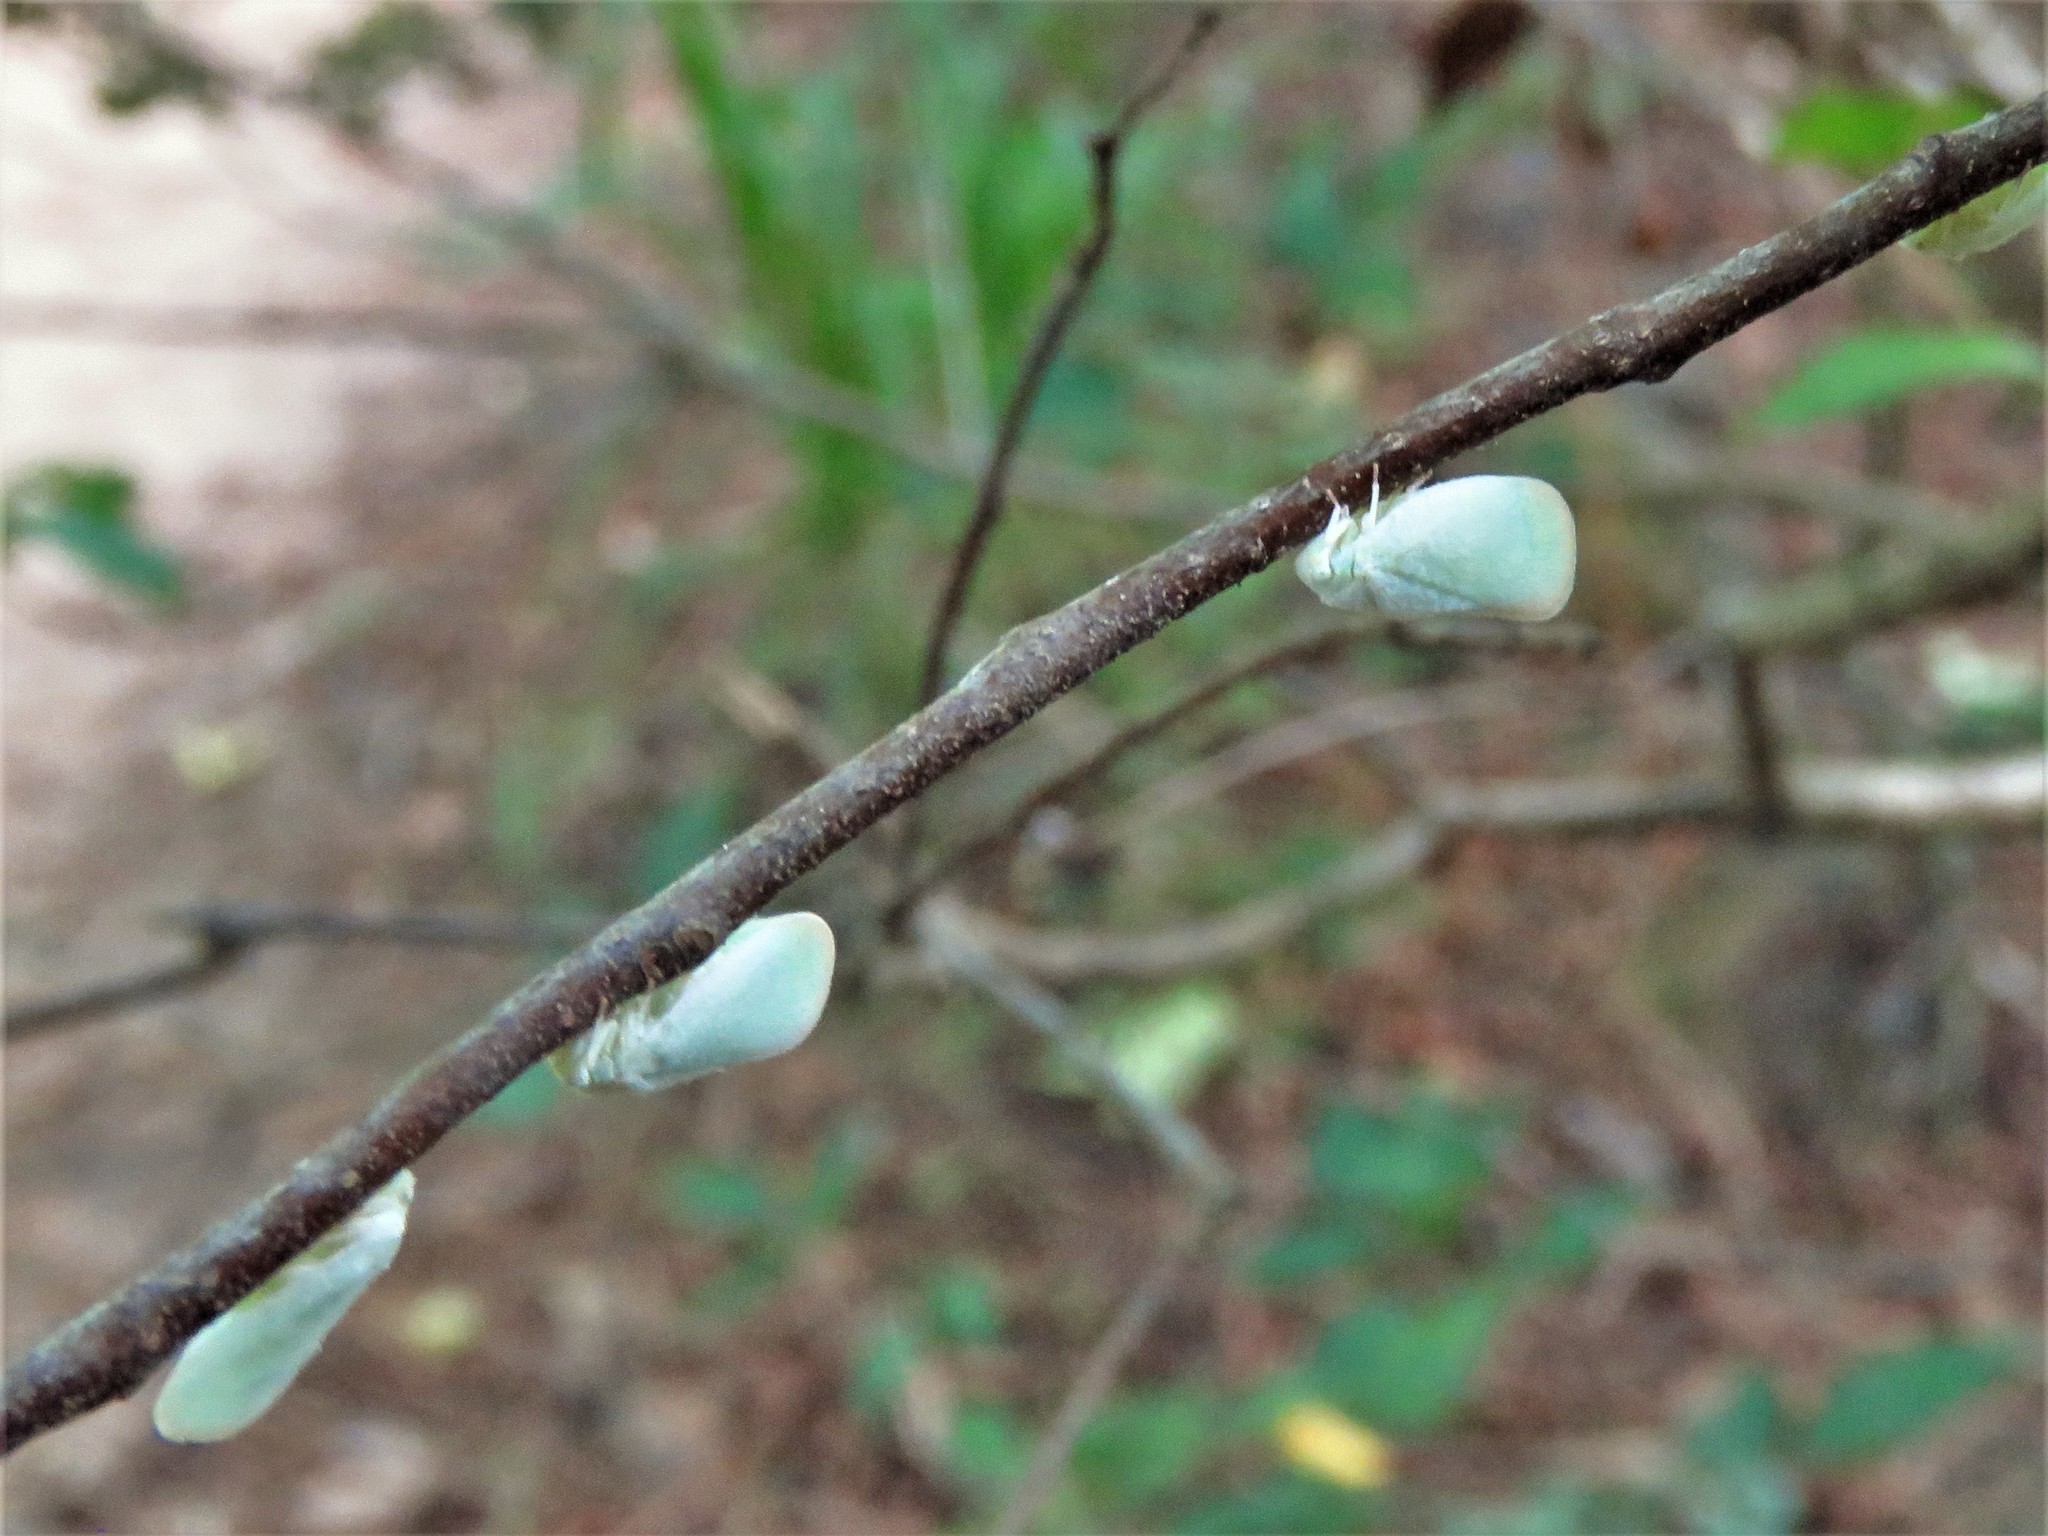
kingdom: Animalia
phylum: Arthropoda
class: Insecta
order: Hemiptera
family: Flatidae
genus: Ormenoides
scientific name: Ormenoides venusta
